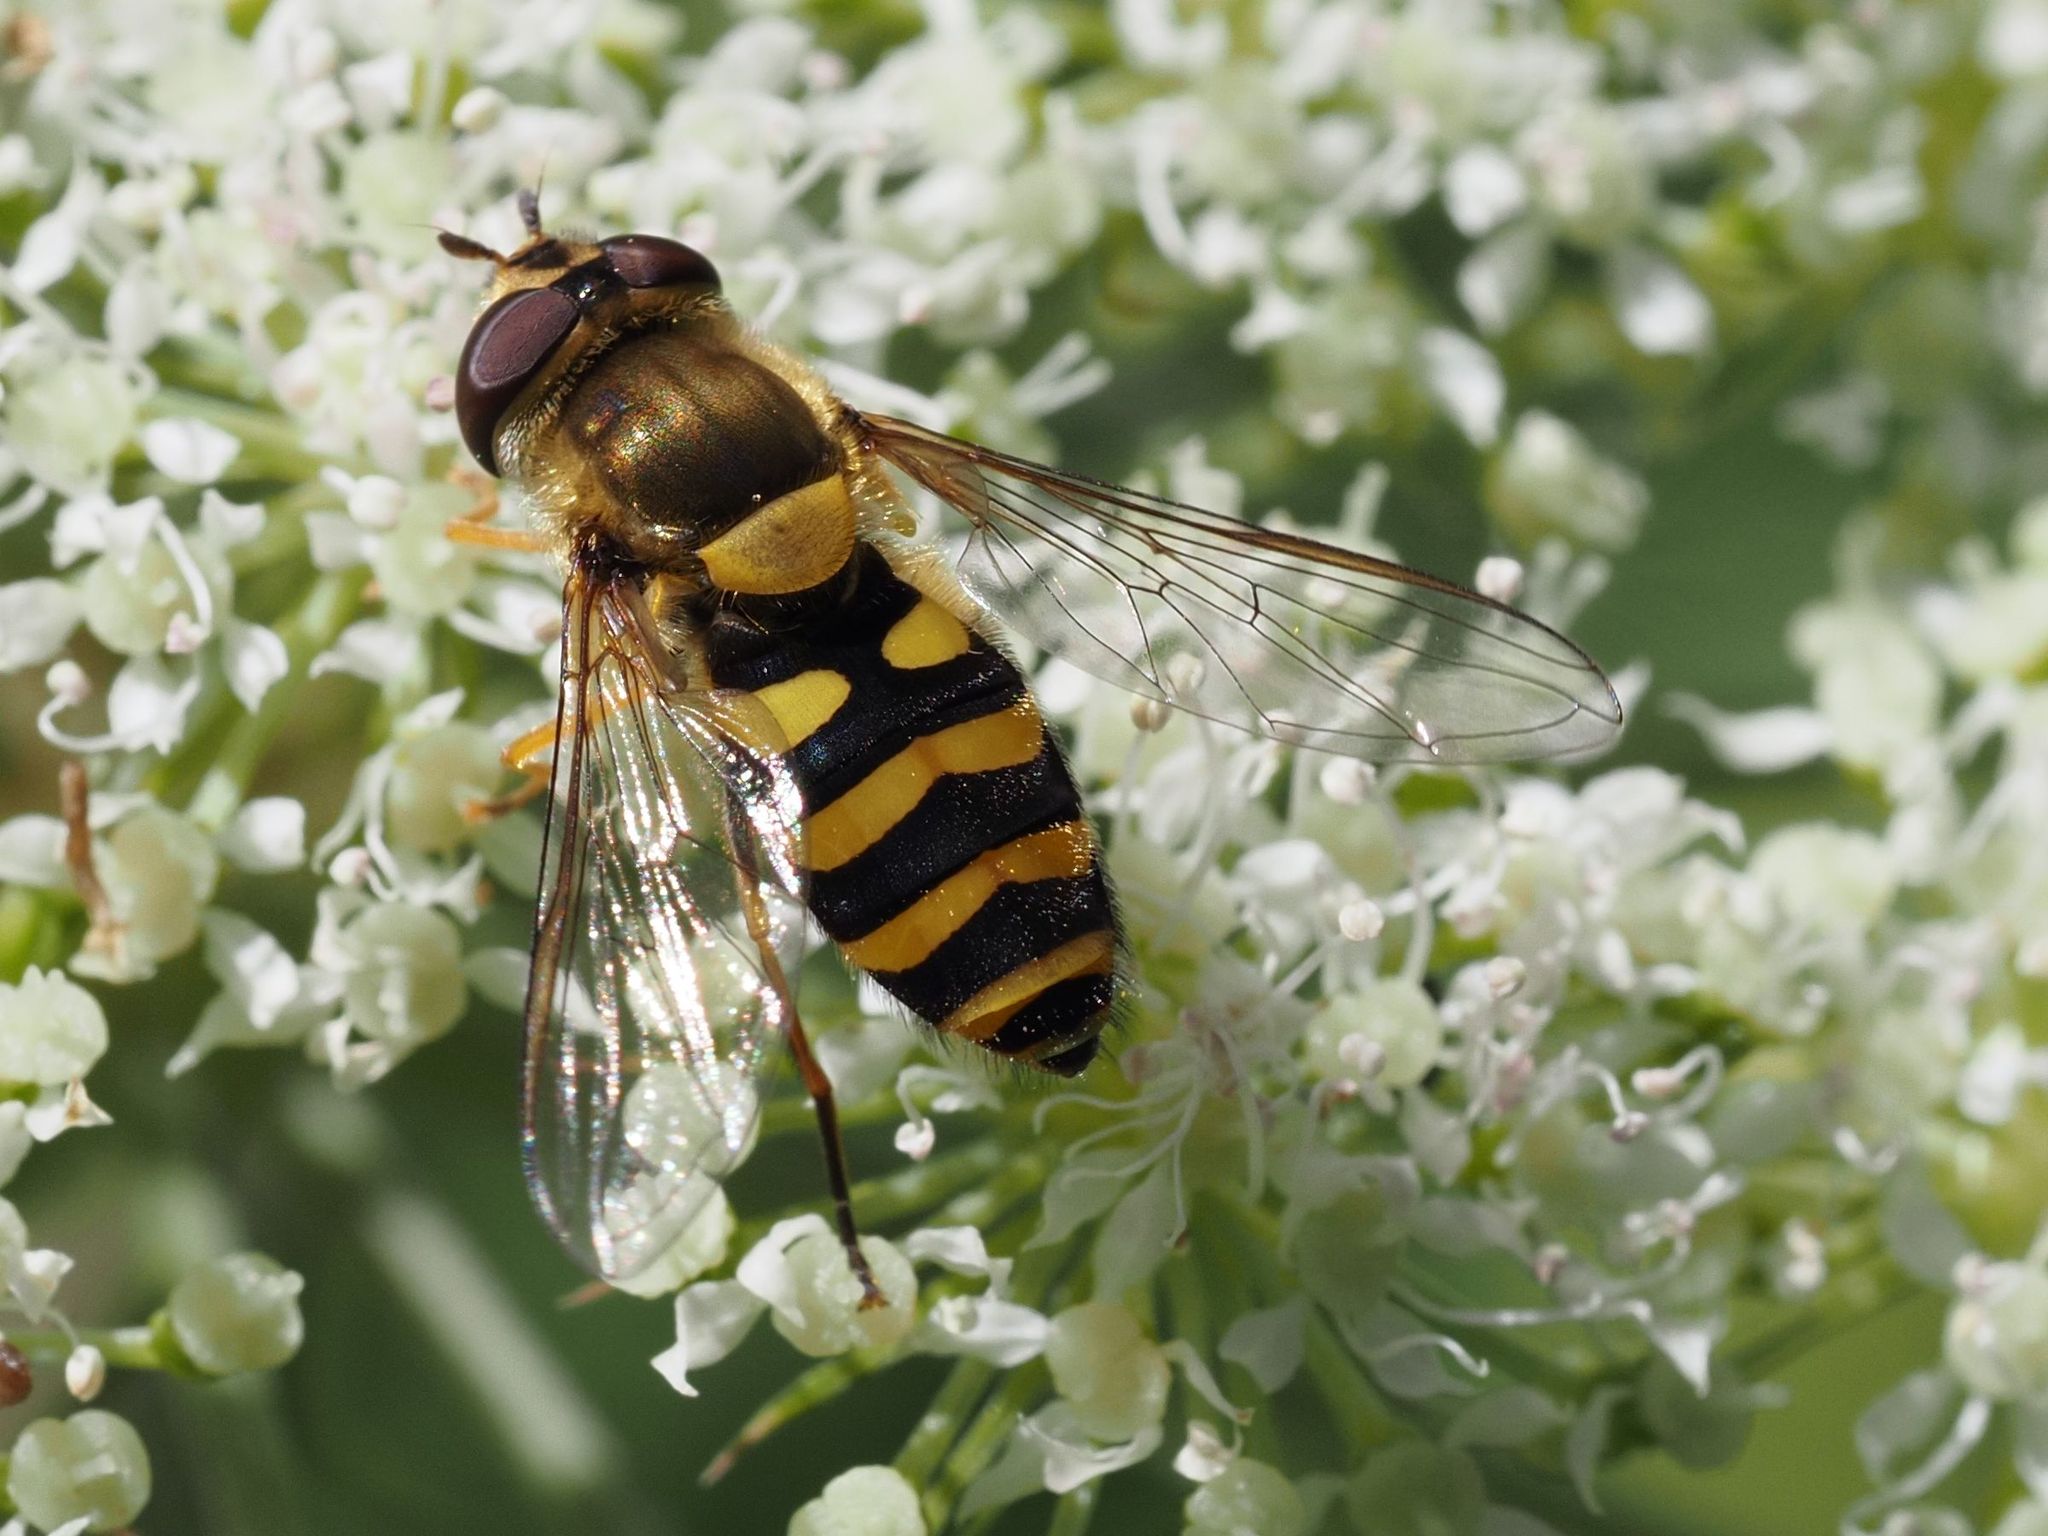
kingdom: Animalia
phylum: Arthropoda
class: Insecta
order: Diptera
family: Syrphidae
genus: Syrphus
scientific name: Syrphus vitripennis
